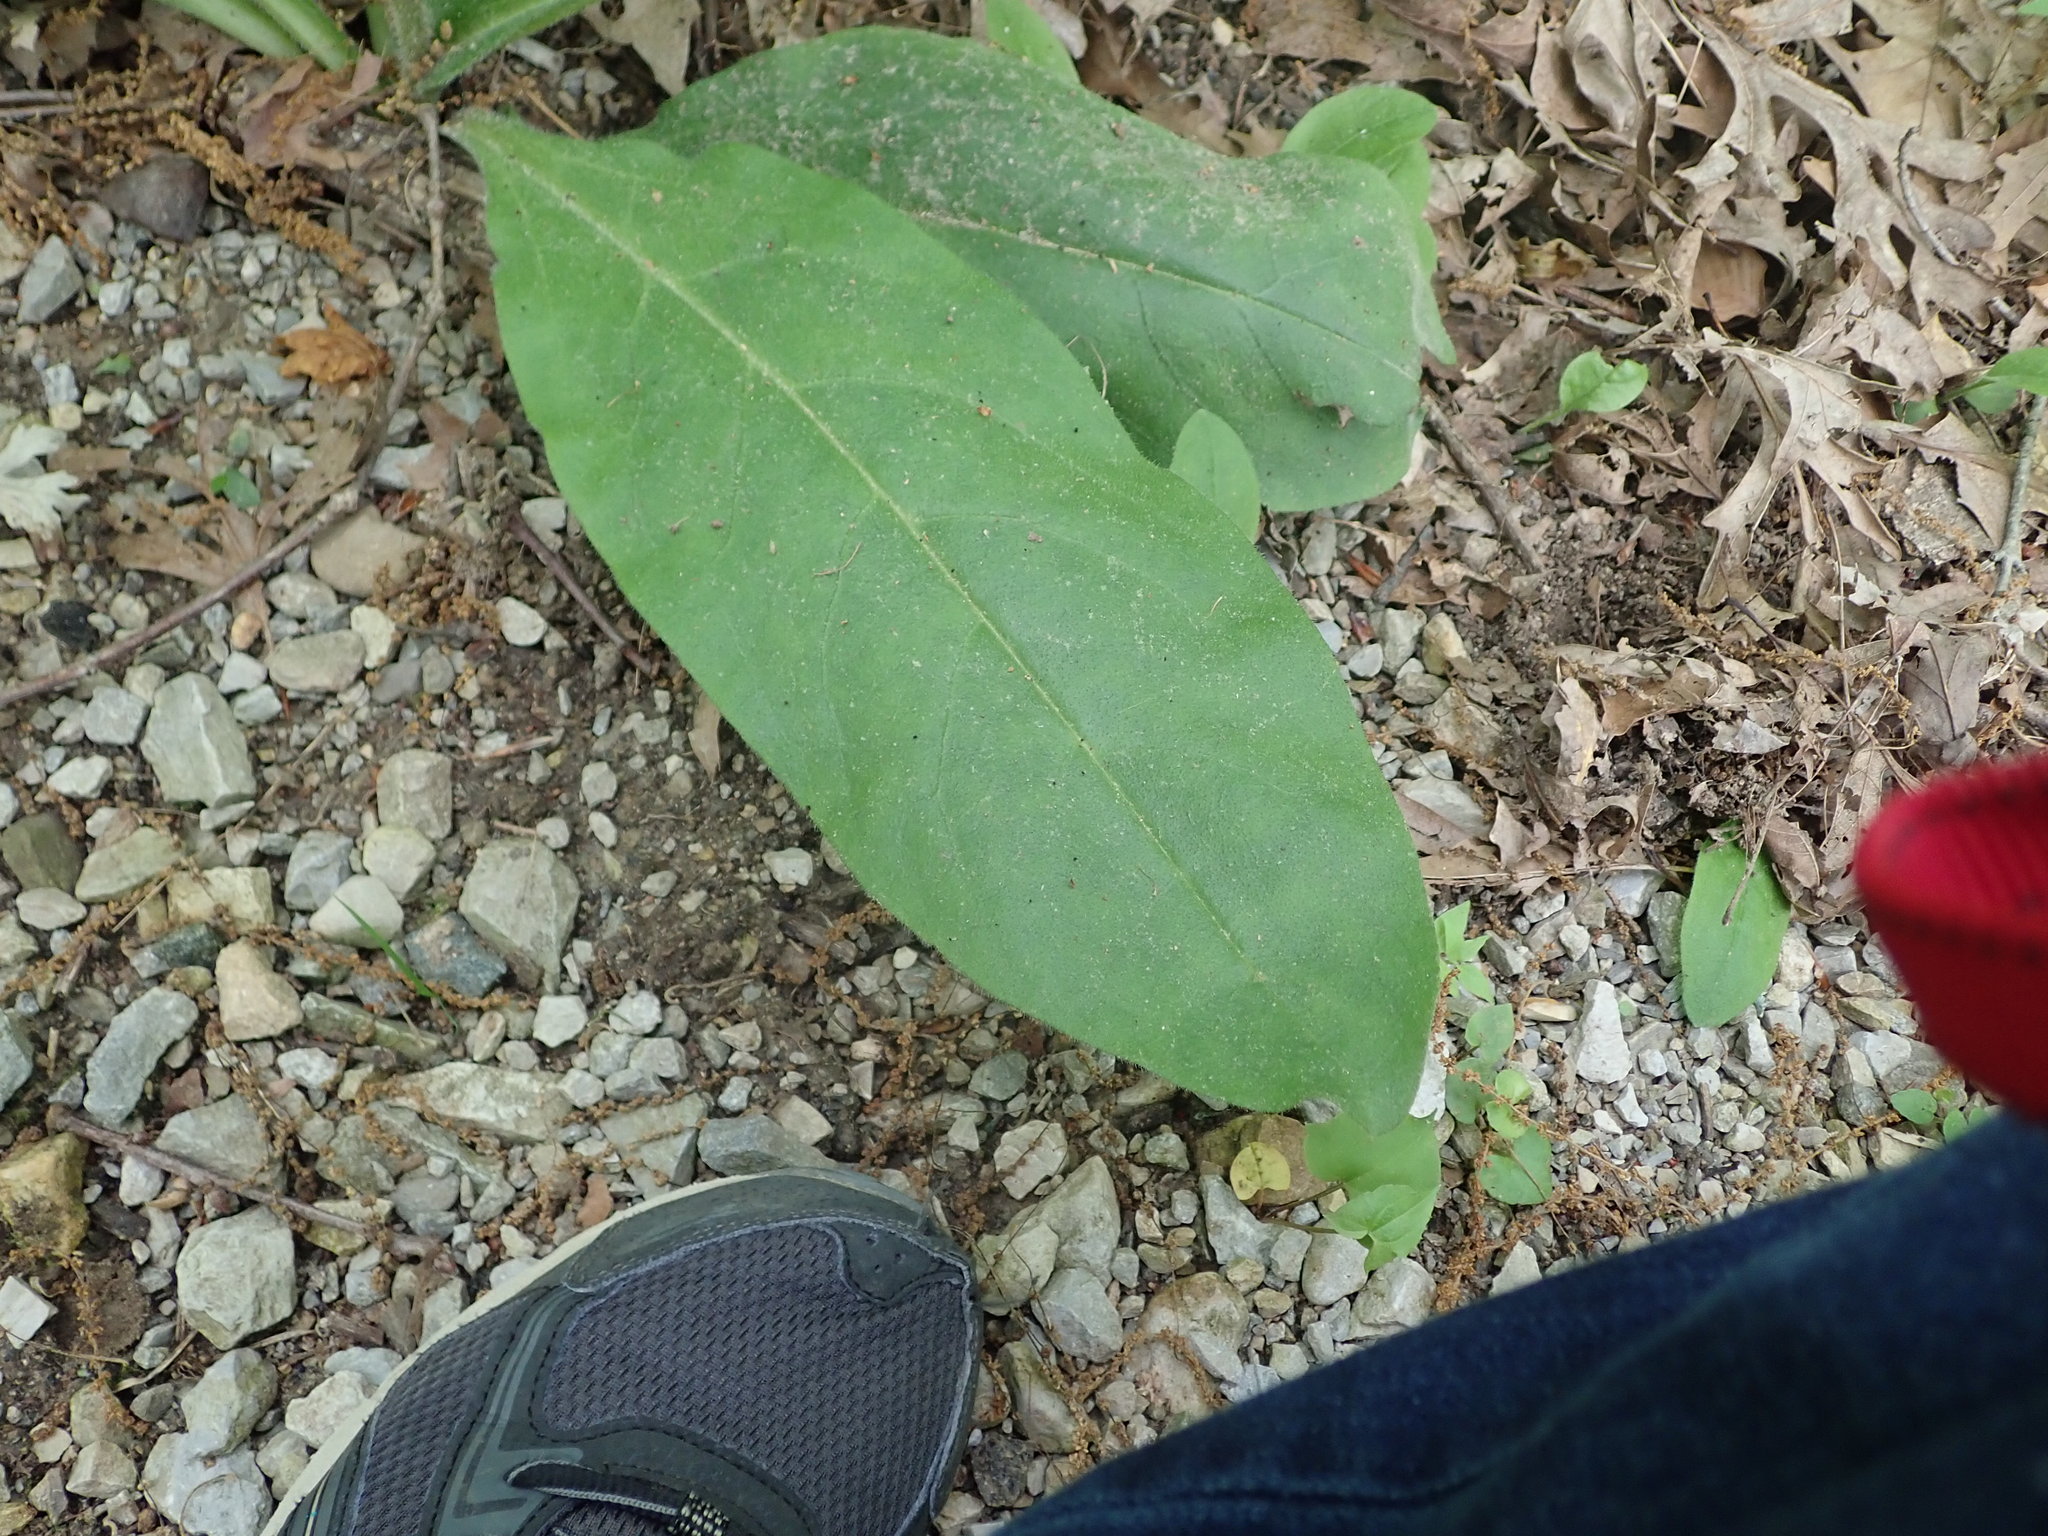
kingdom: Plantae
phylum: Tracheophyta
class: Magnoliopsida
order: Boraginales
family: Boraginaceae
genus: Andersonglossum
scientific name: Andersonglossum virginianum
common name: Wild comfrey
